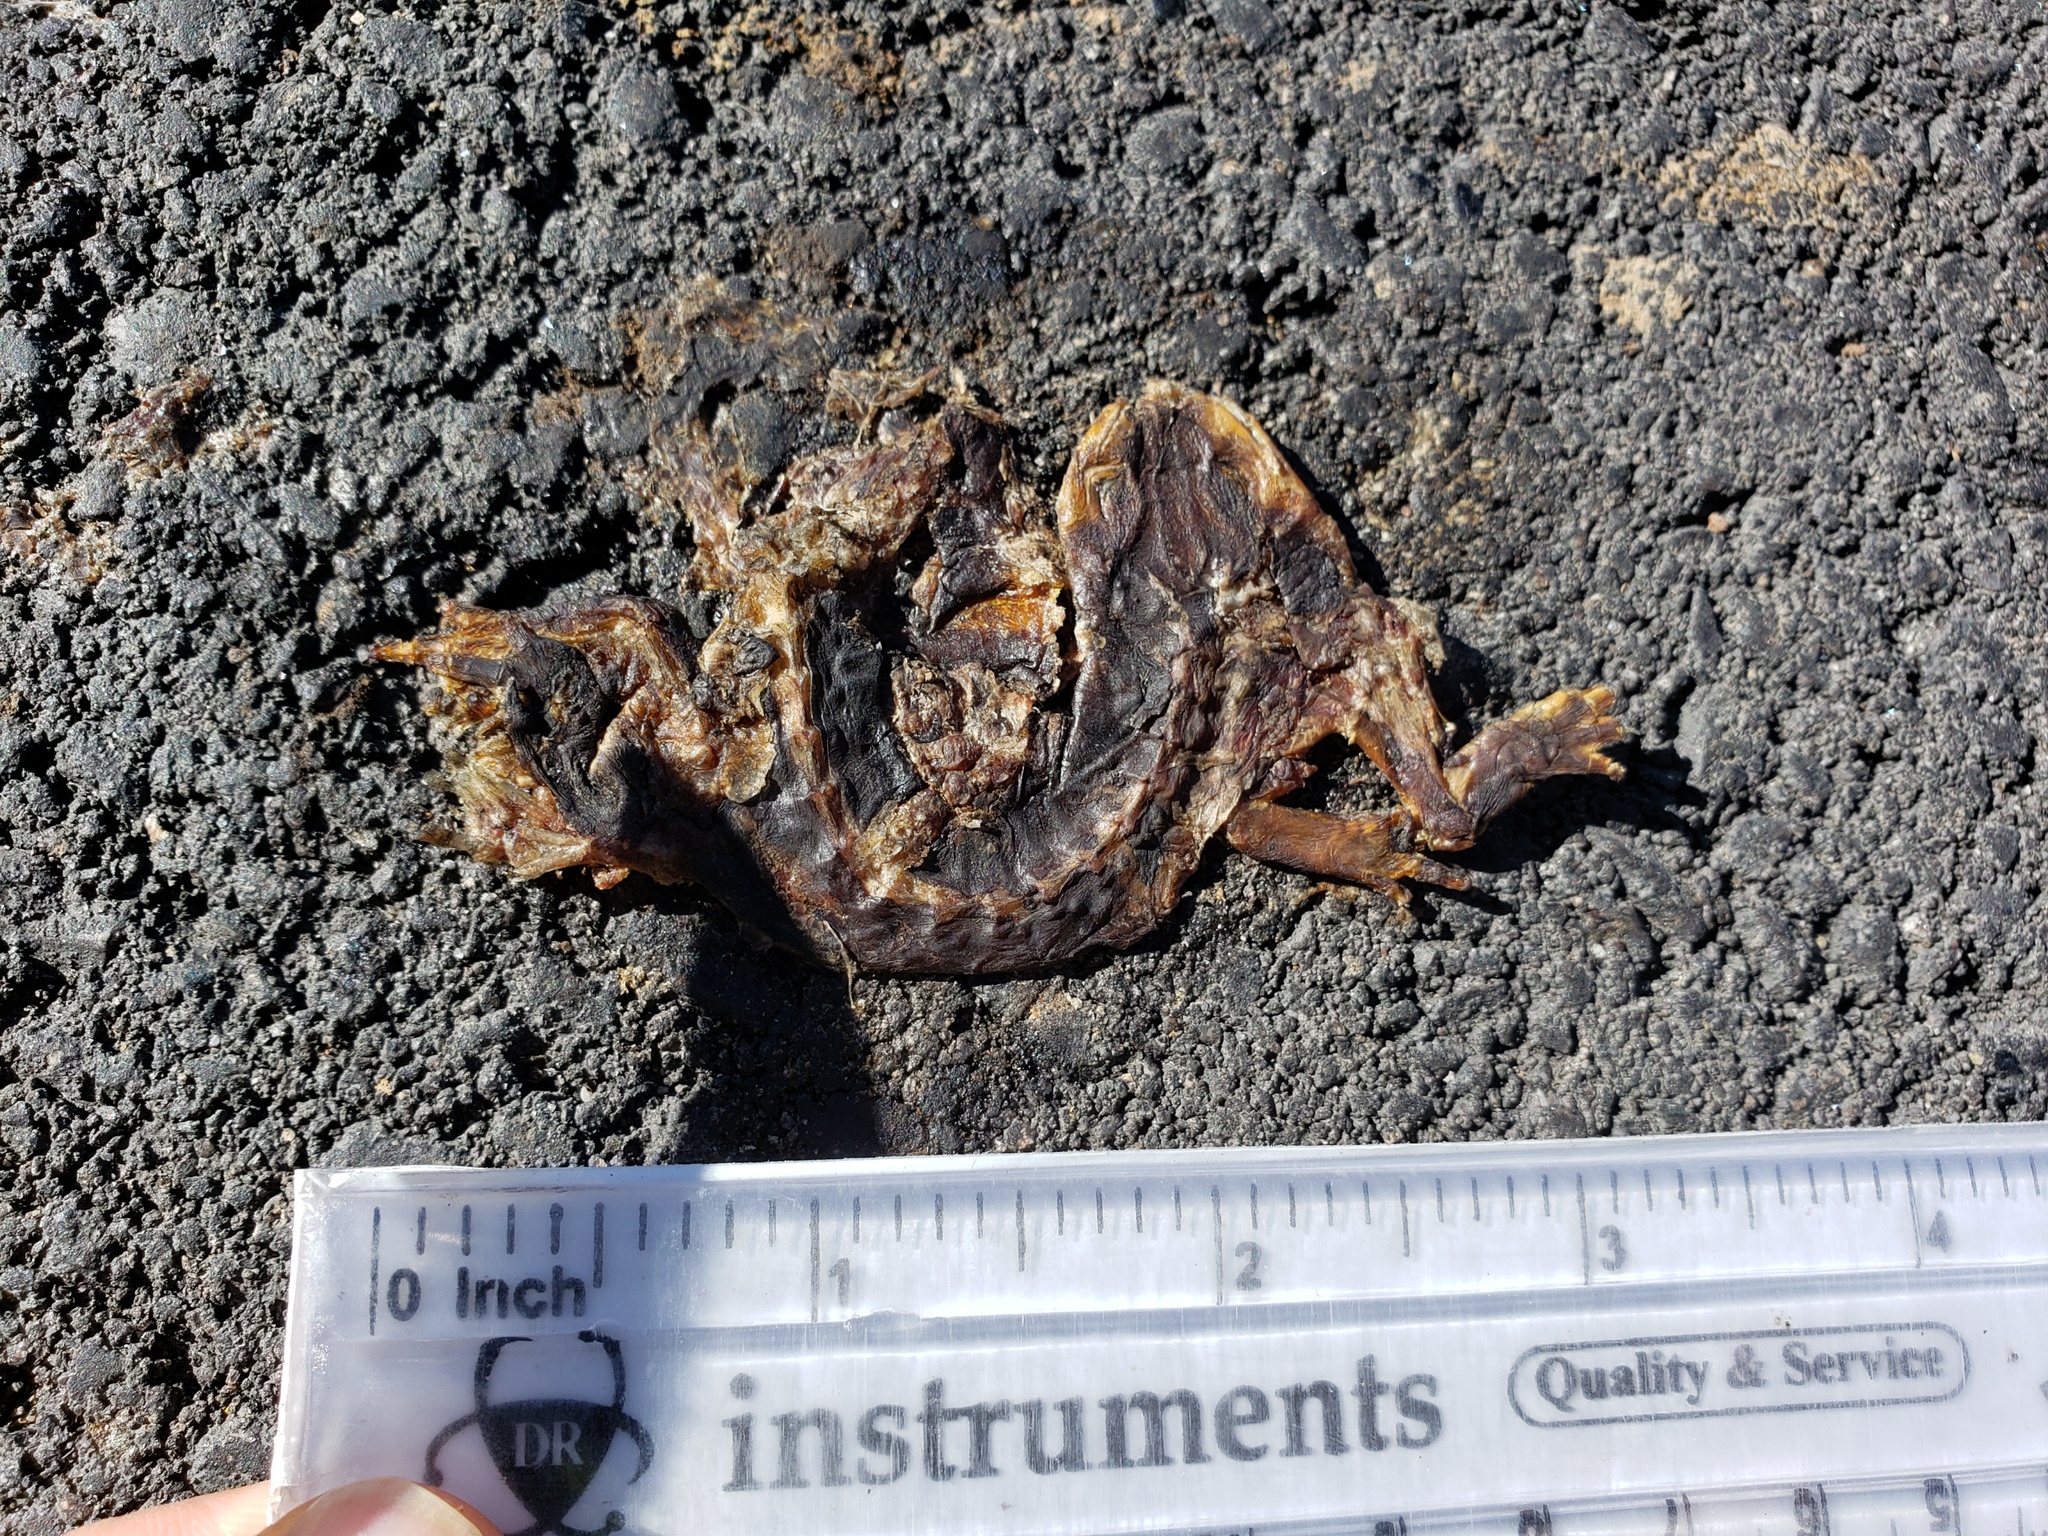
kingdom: Animalia
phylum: Chordata
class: Amphibia
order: Caudata
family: Salamandridae
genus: Taricha
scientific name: Taricha
